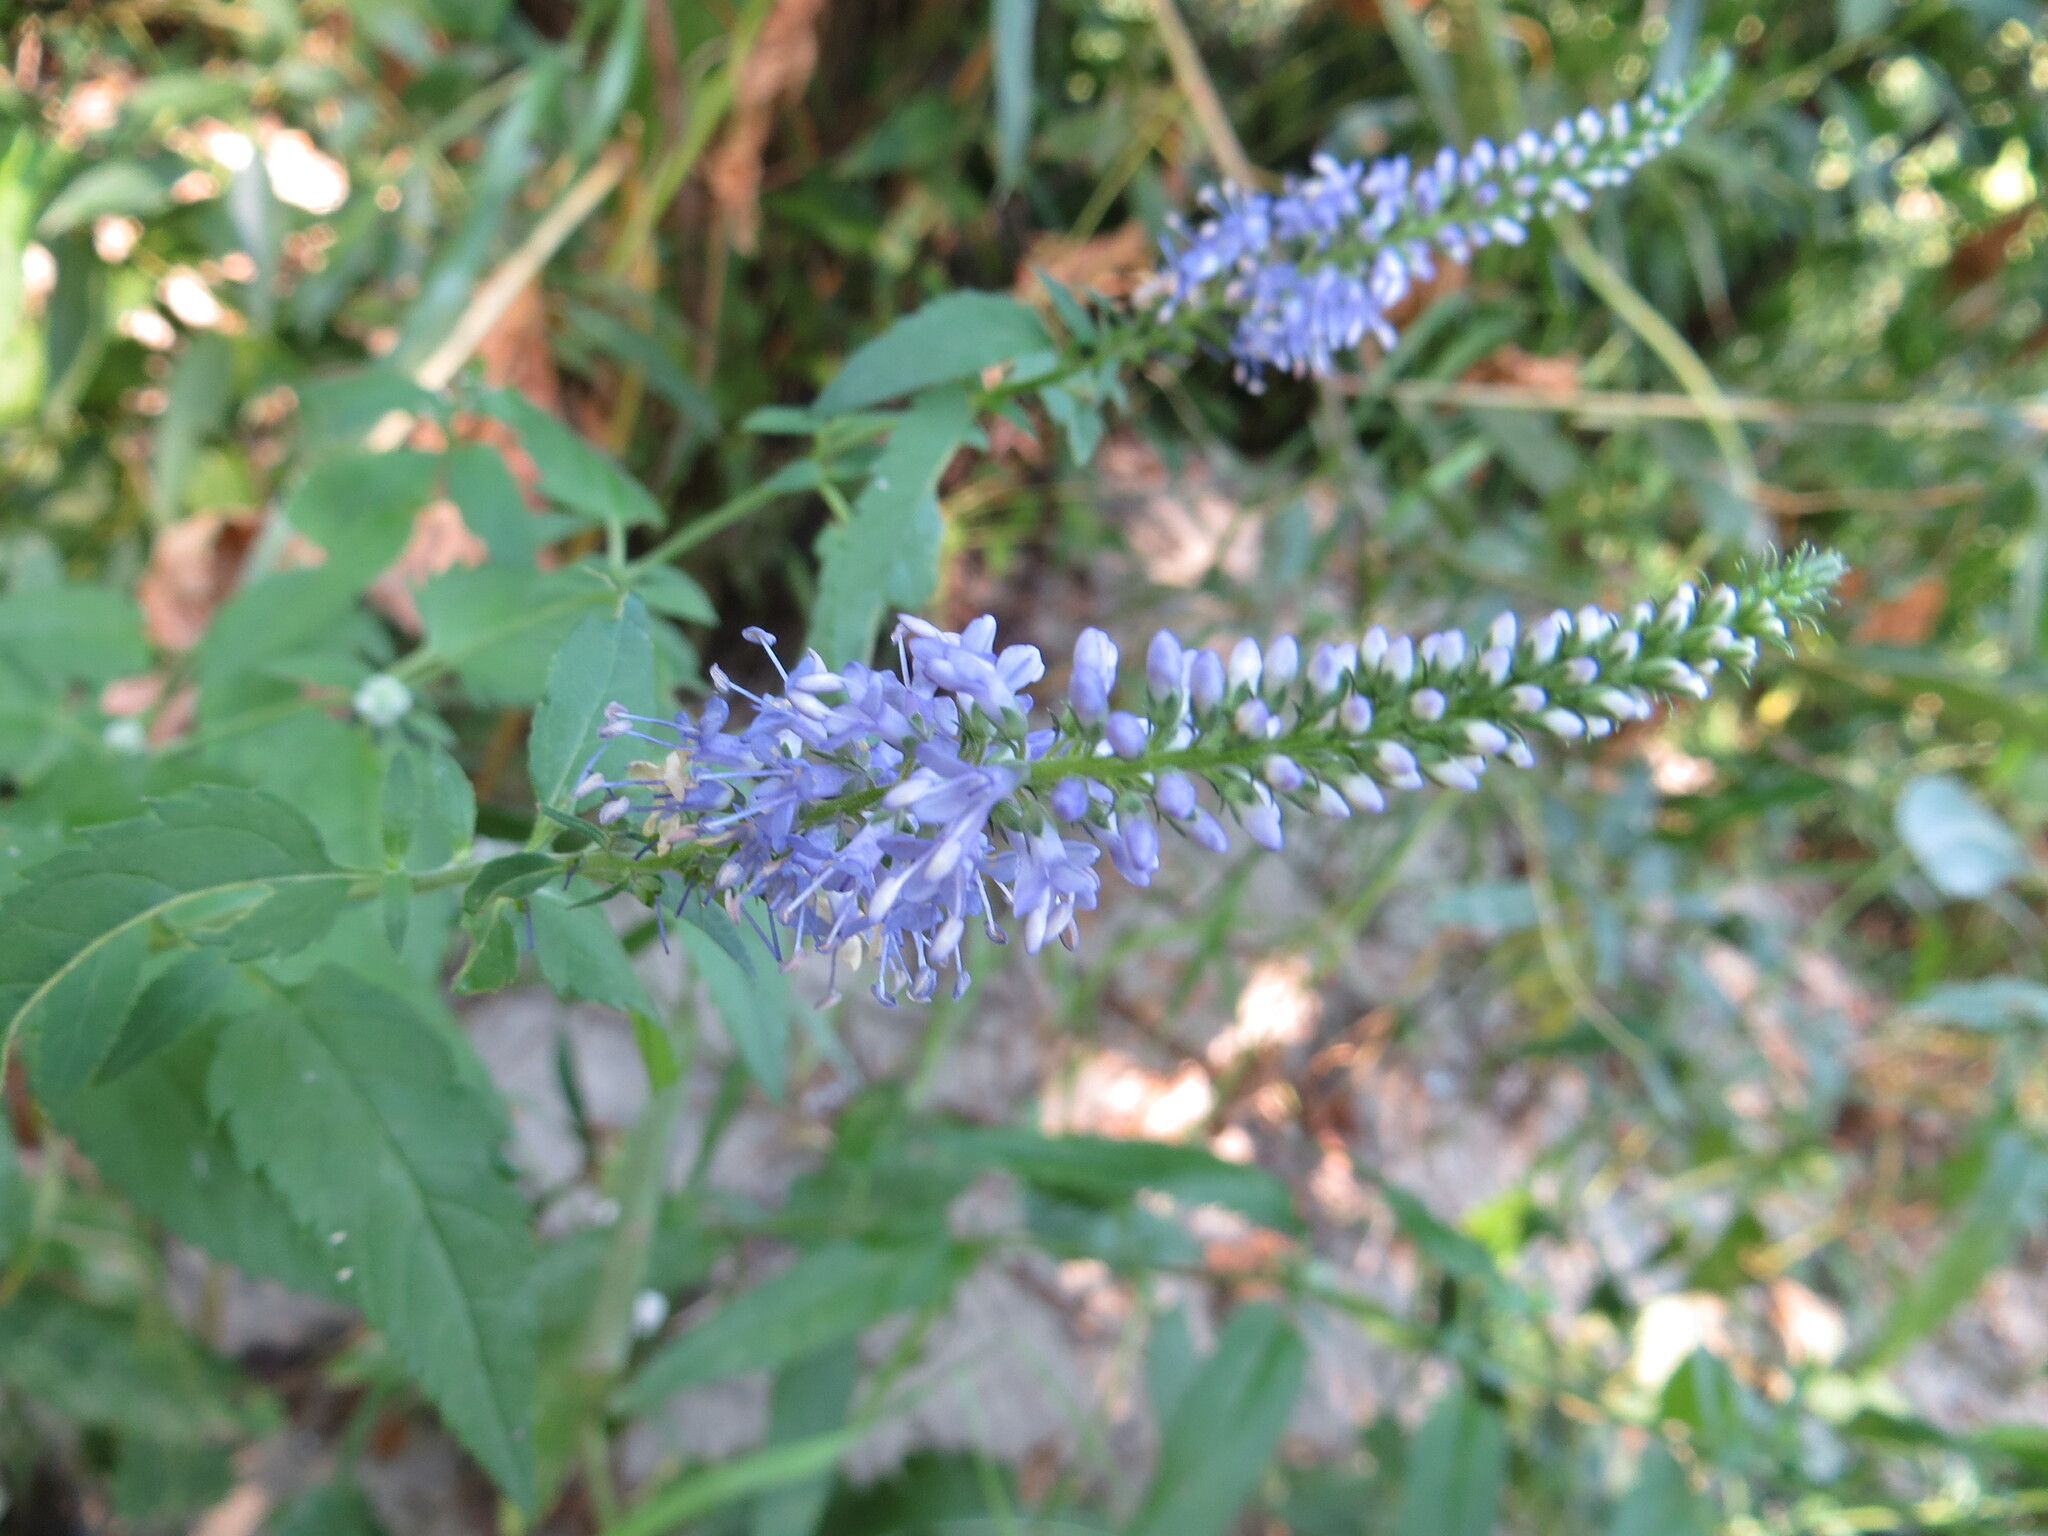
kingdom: Plantae
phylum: Tracheophyta
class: Magnoliopsida
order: Lamiales
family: Plantaginaceae
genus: Veronica
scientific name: Veronica longifolia
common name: Garden speedwell
